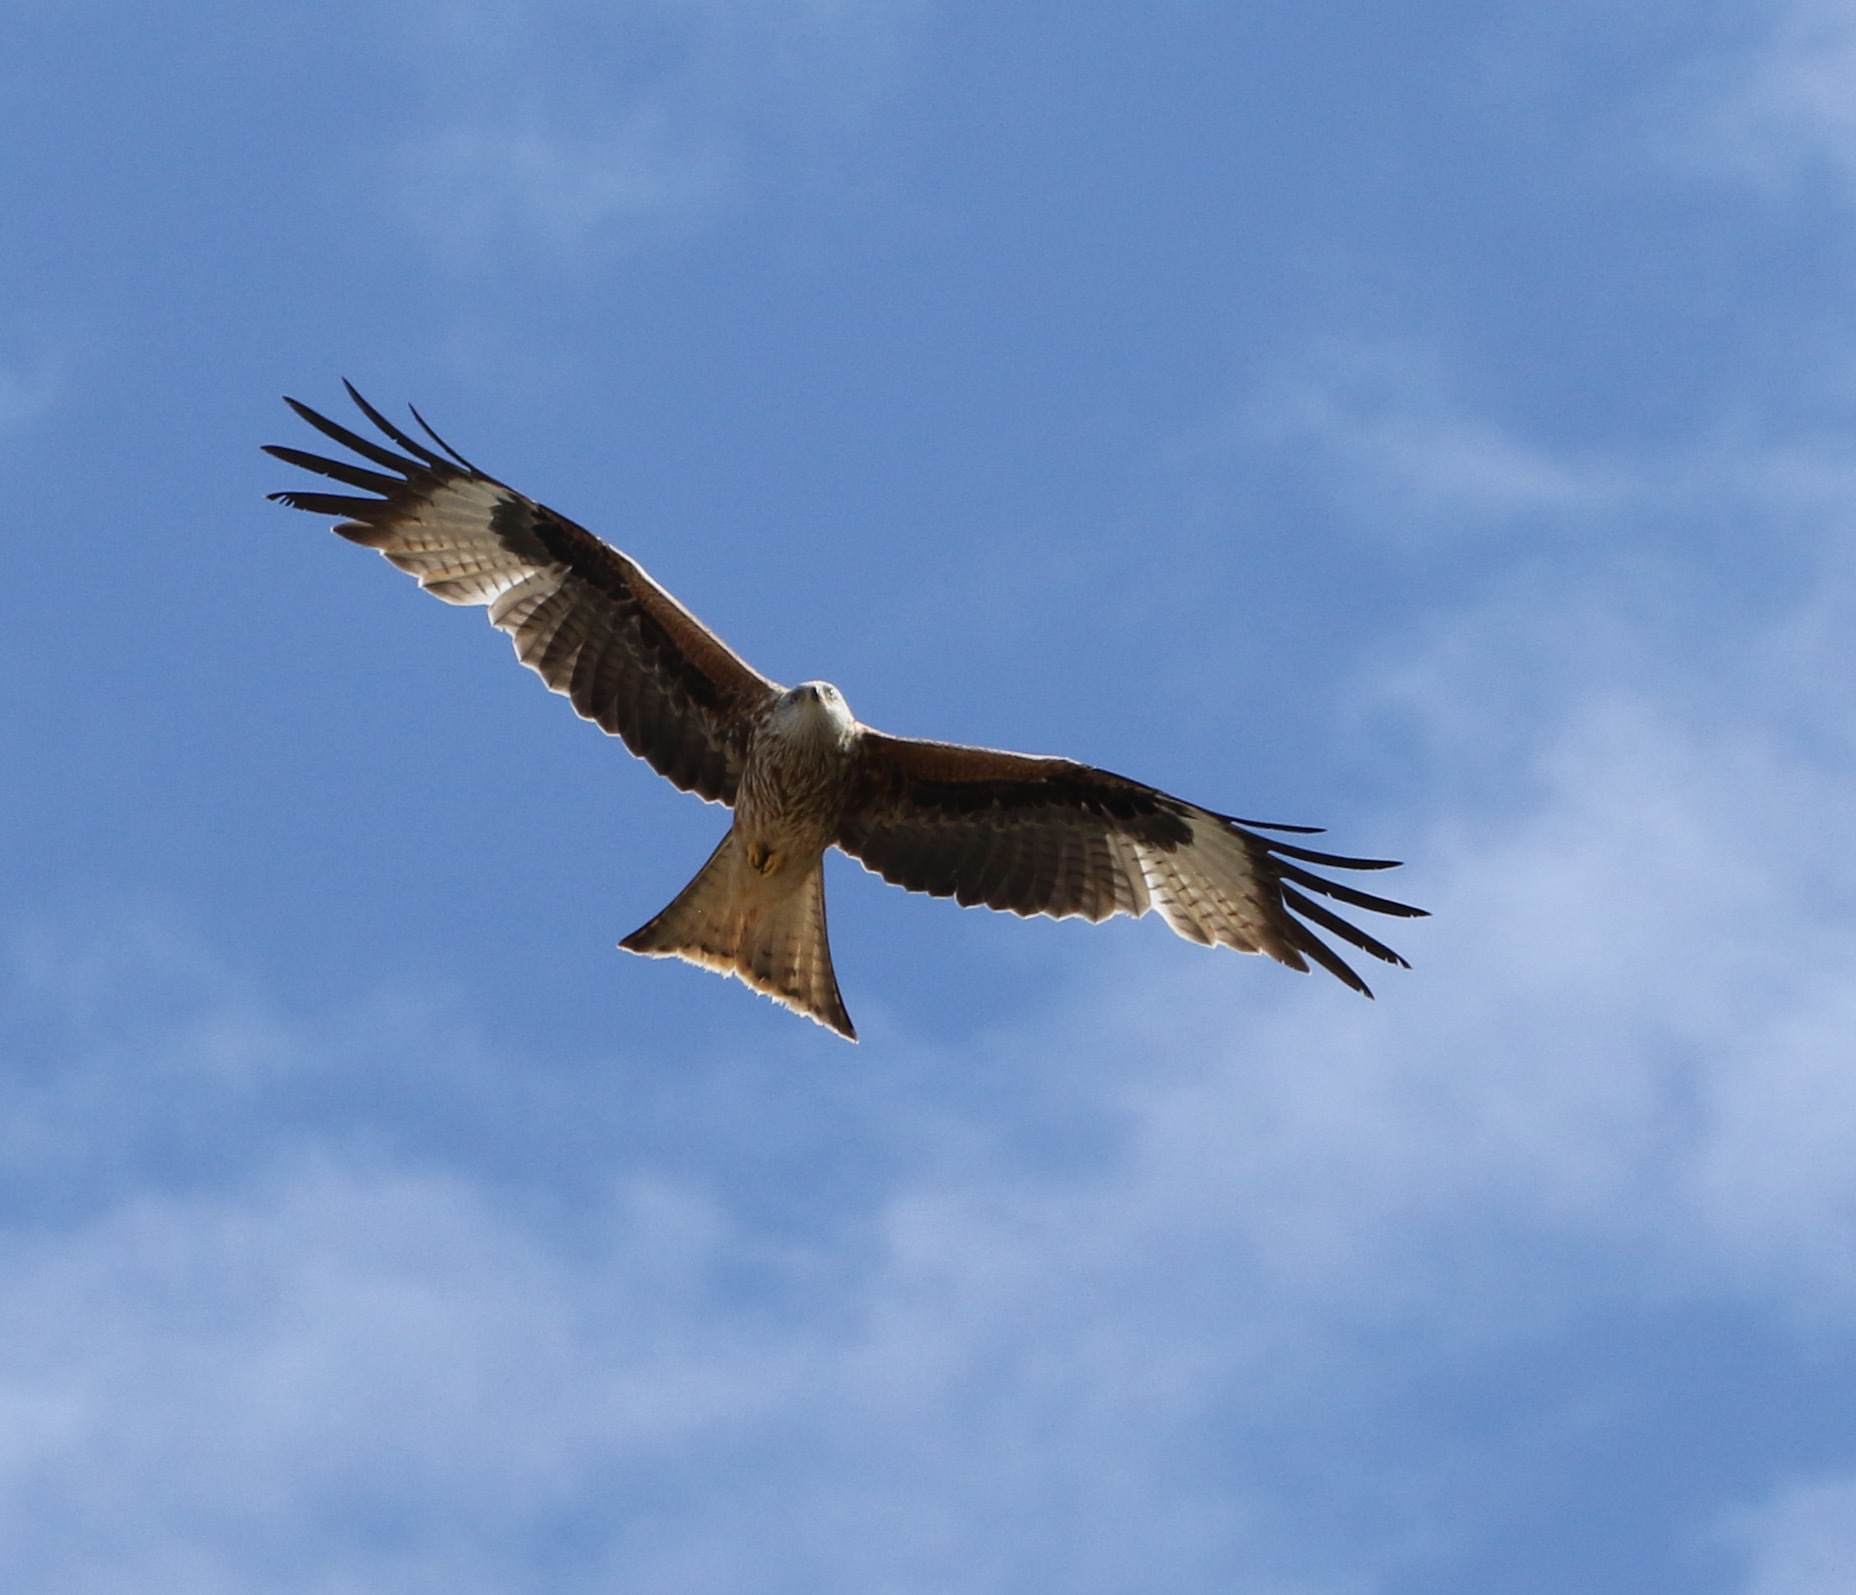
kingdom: Animalia
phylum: Chordata
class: Aves
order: Accipitriformes
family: Accipitridae
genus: Milvus
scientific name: Milvus milvus
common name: Red kite
